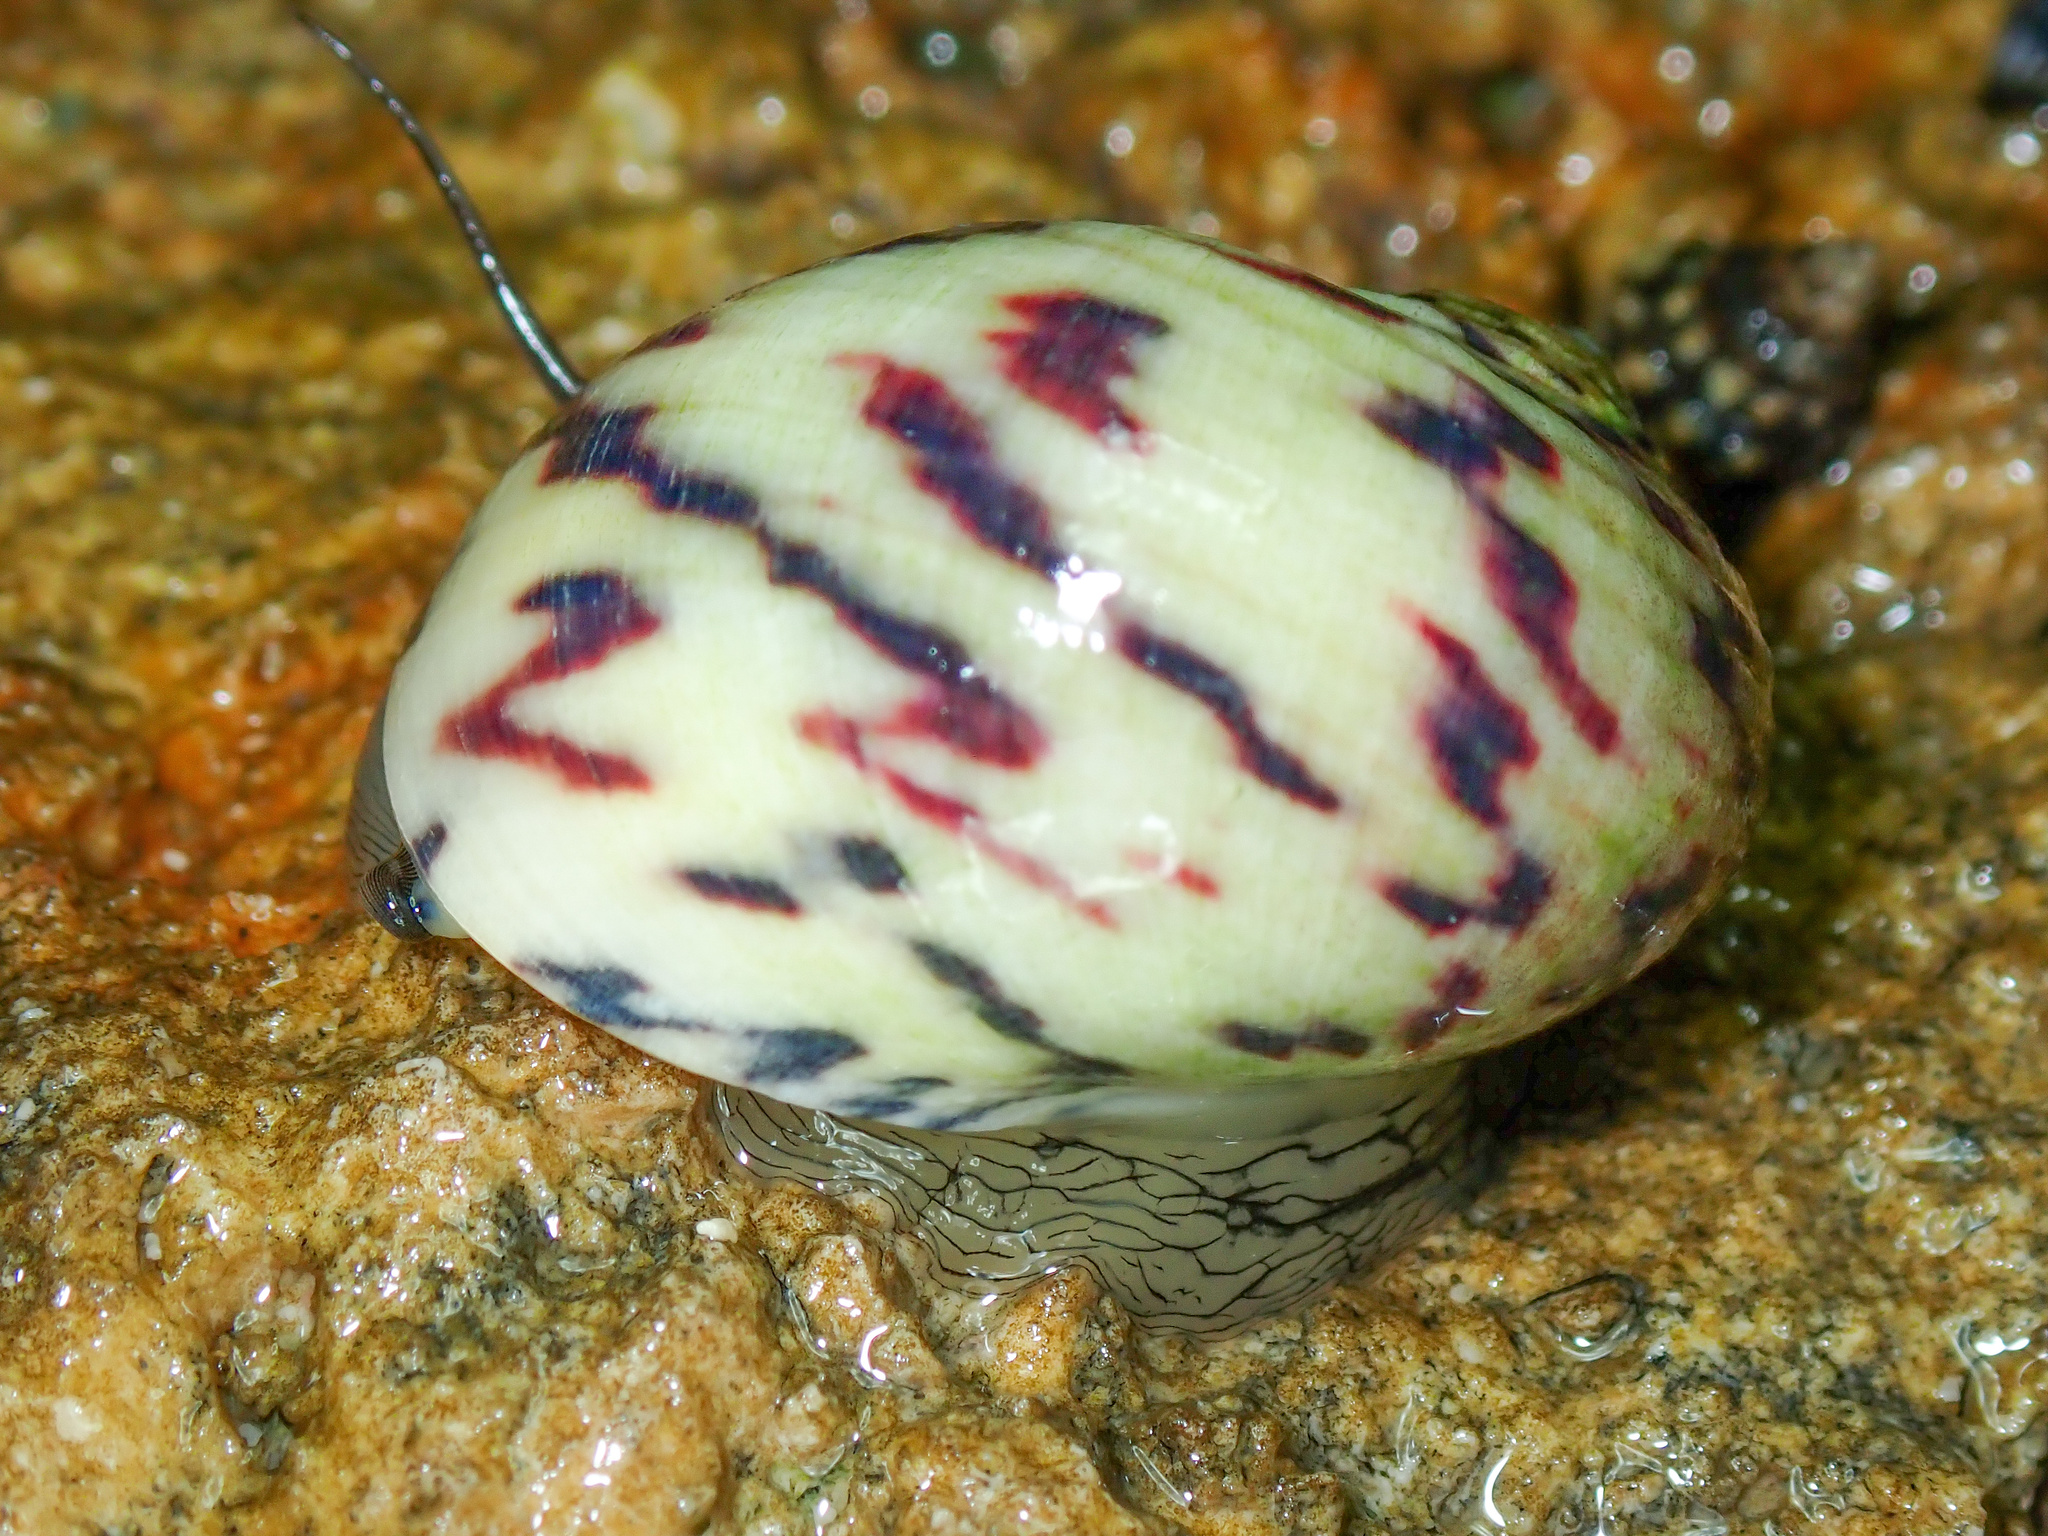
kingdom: Animalia
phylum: Mollusca
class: Gastropoda
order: Cycloneritida
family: Neritidae
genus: Nerita
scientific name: Nerita peloronta
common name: Bleeding tooth
